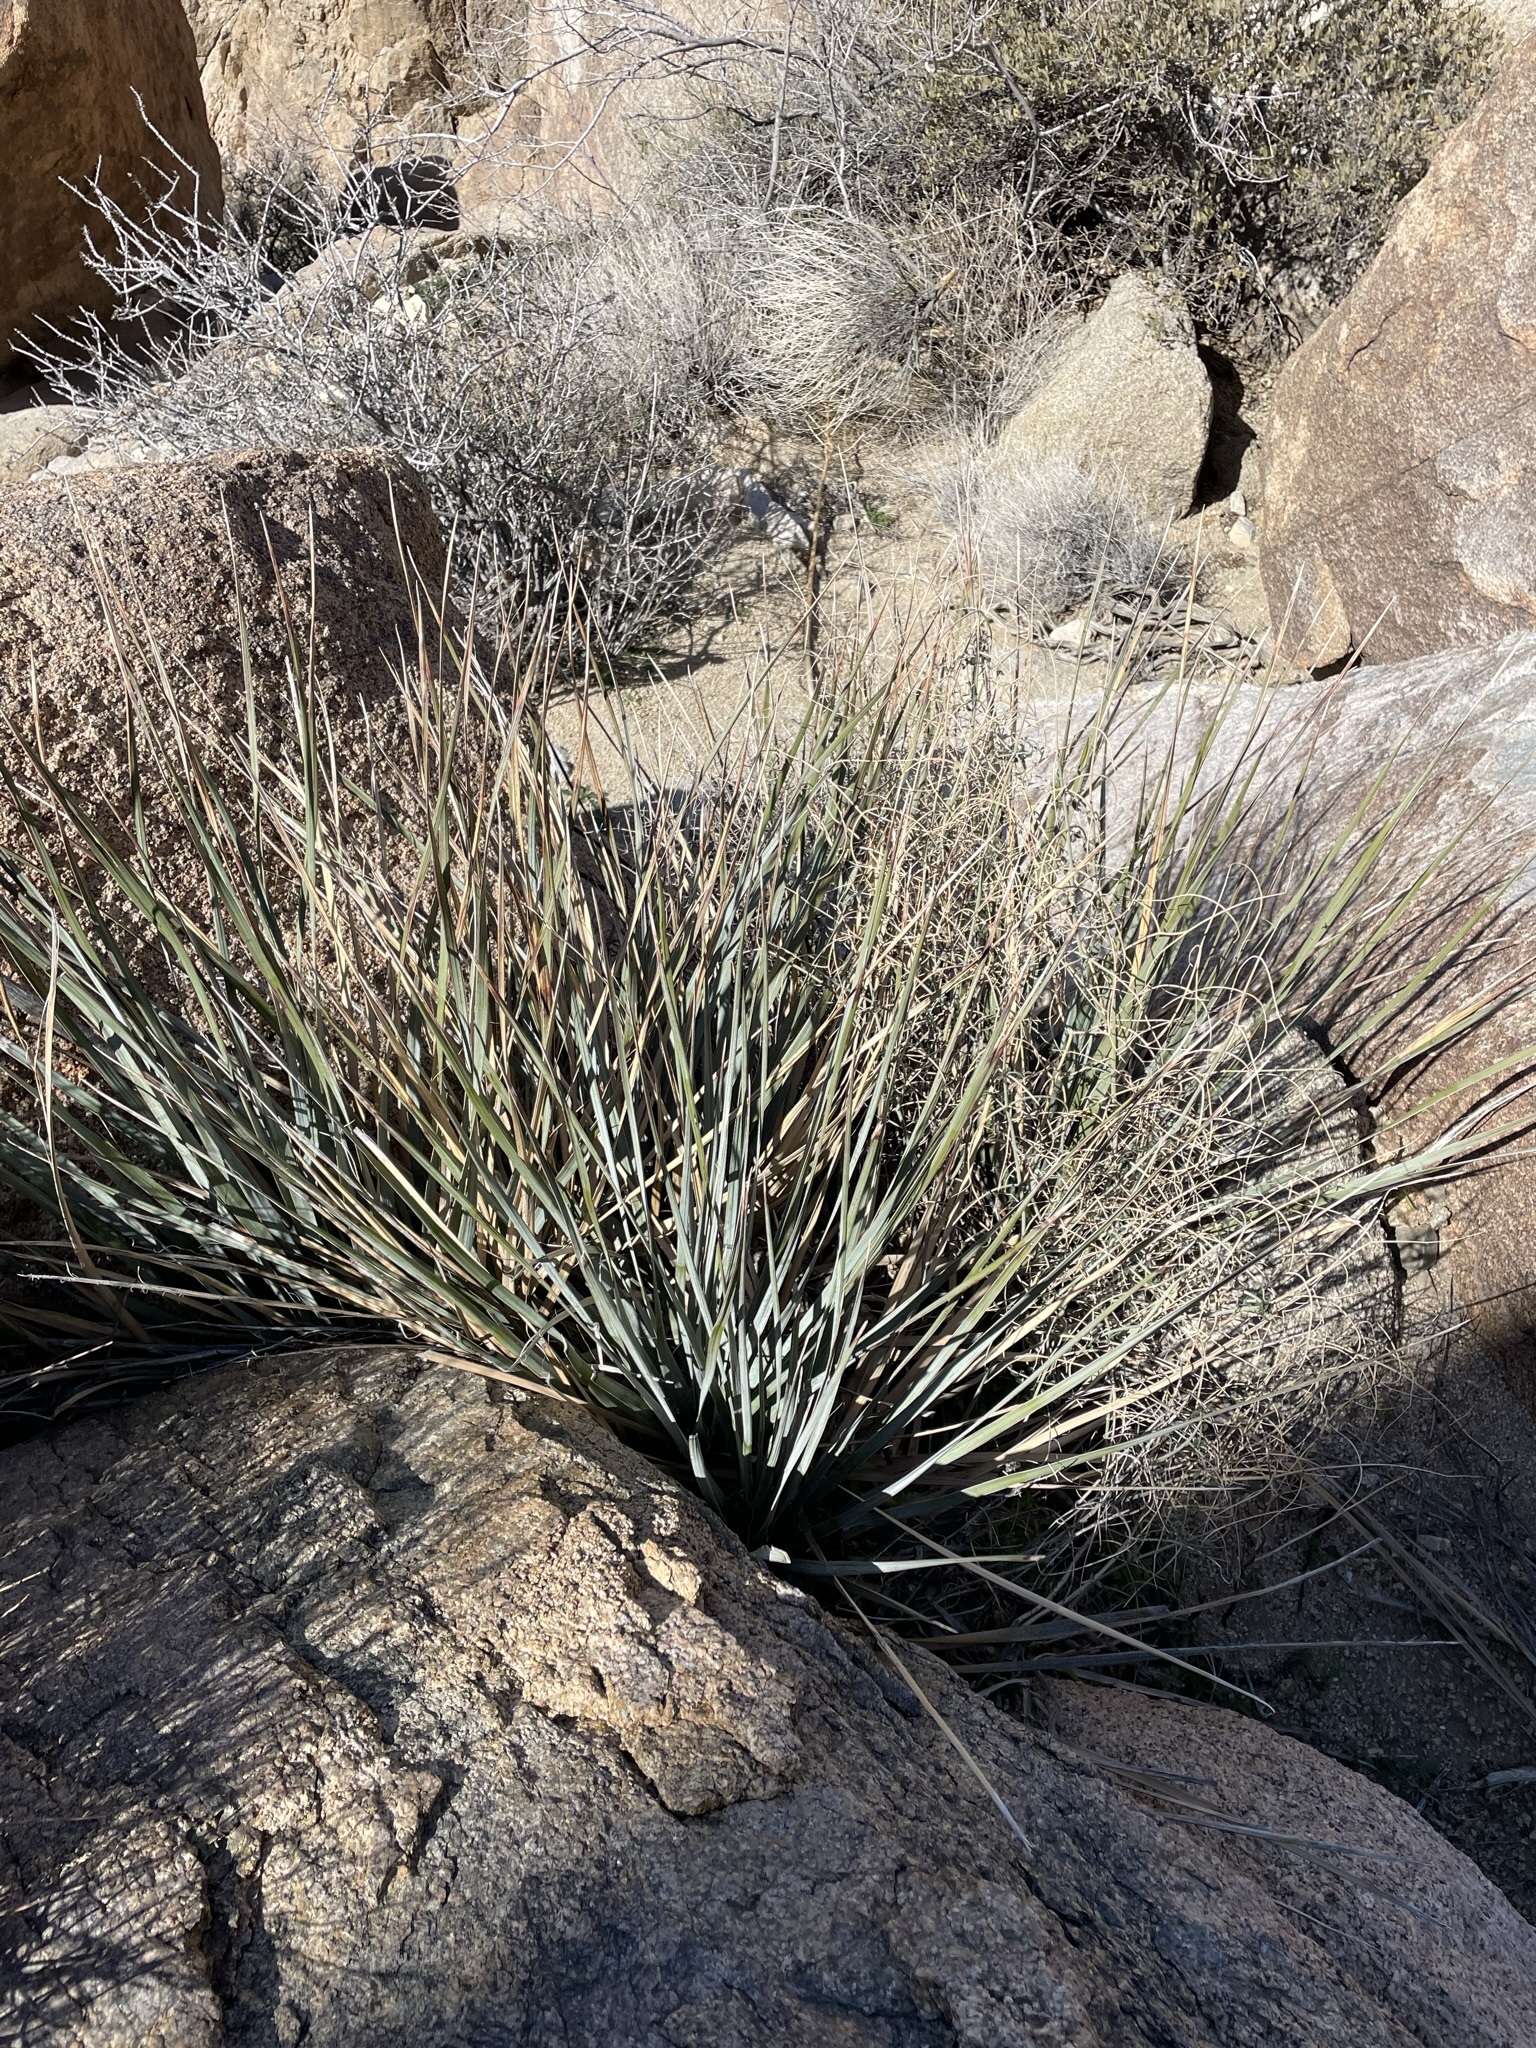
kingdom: Plantae
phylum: Tracheophyta
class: Liliopsida
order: Asparagales
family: Asparagaceae
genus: Nolina
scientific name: Nolina bigelovii
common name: Bigelow bear-grass
